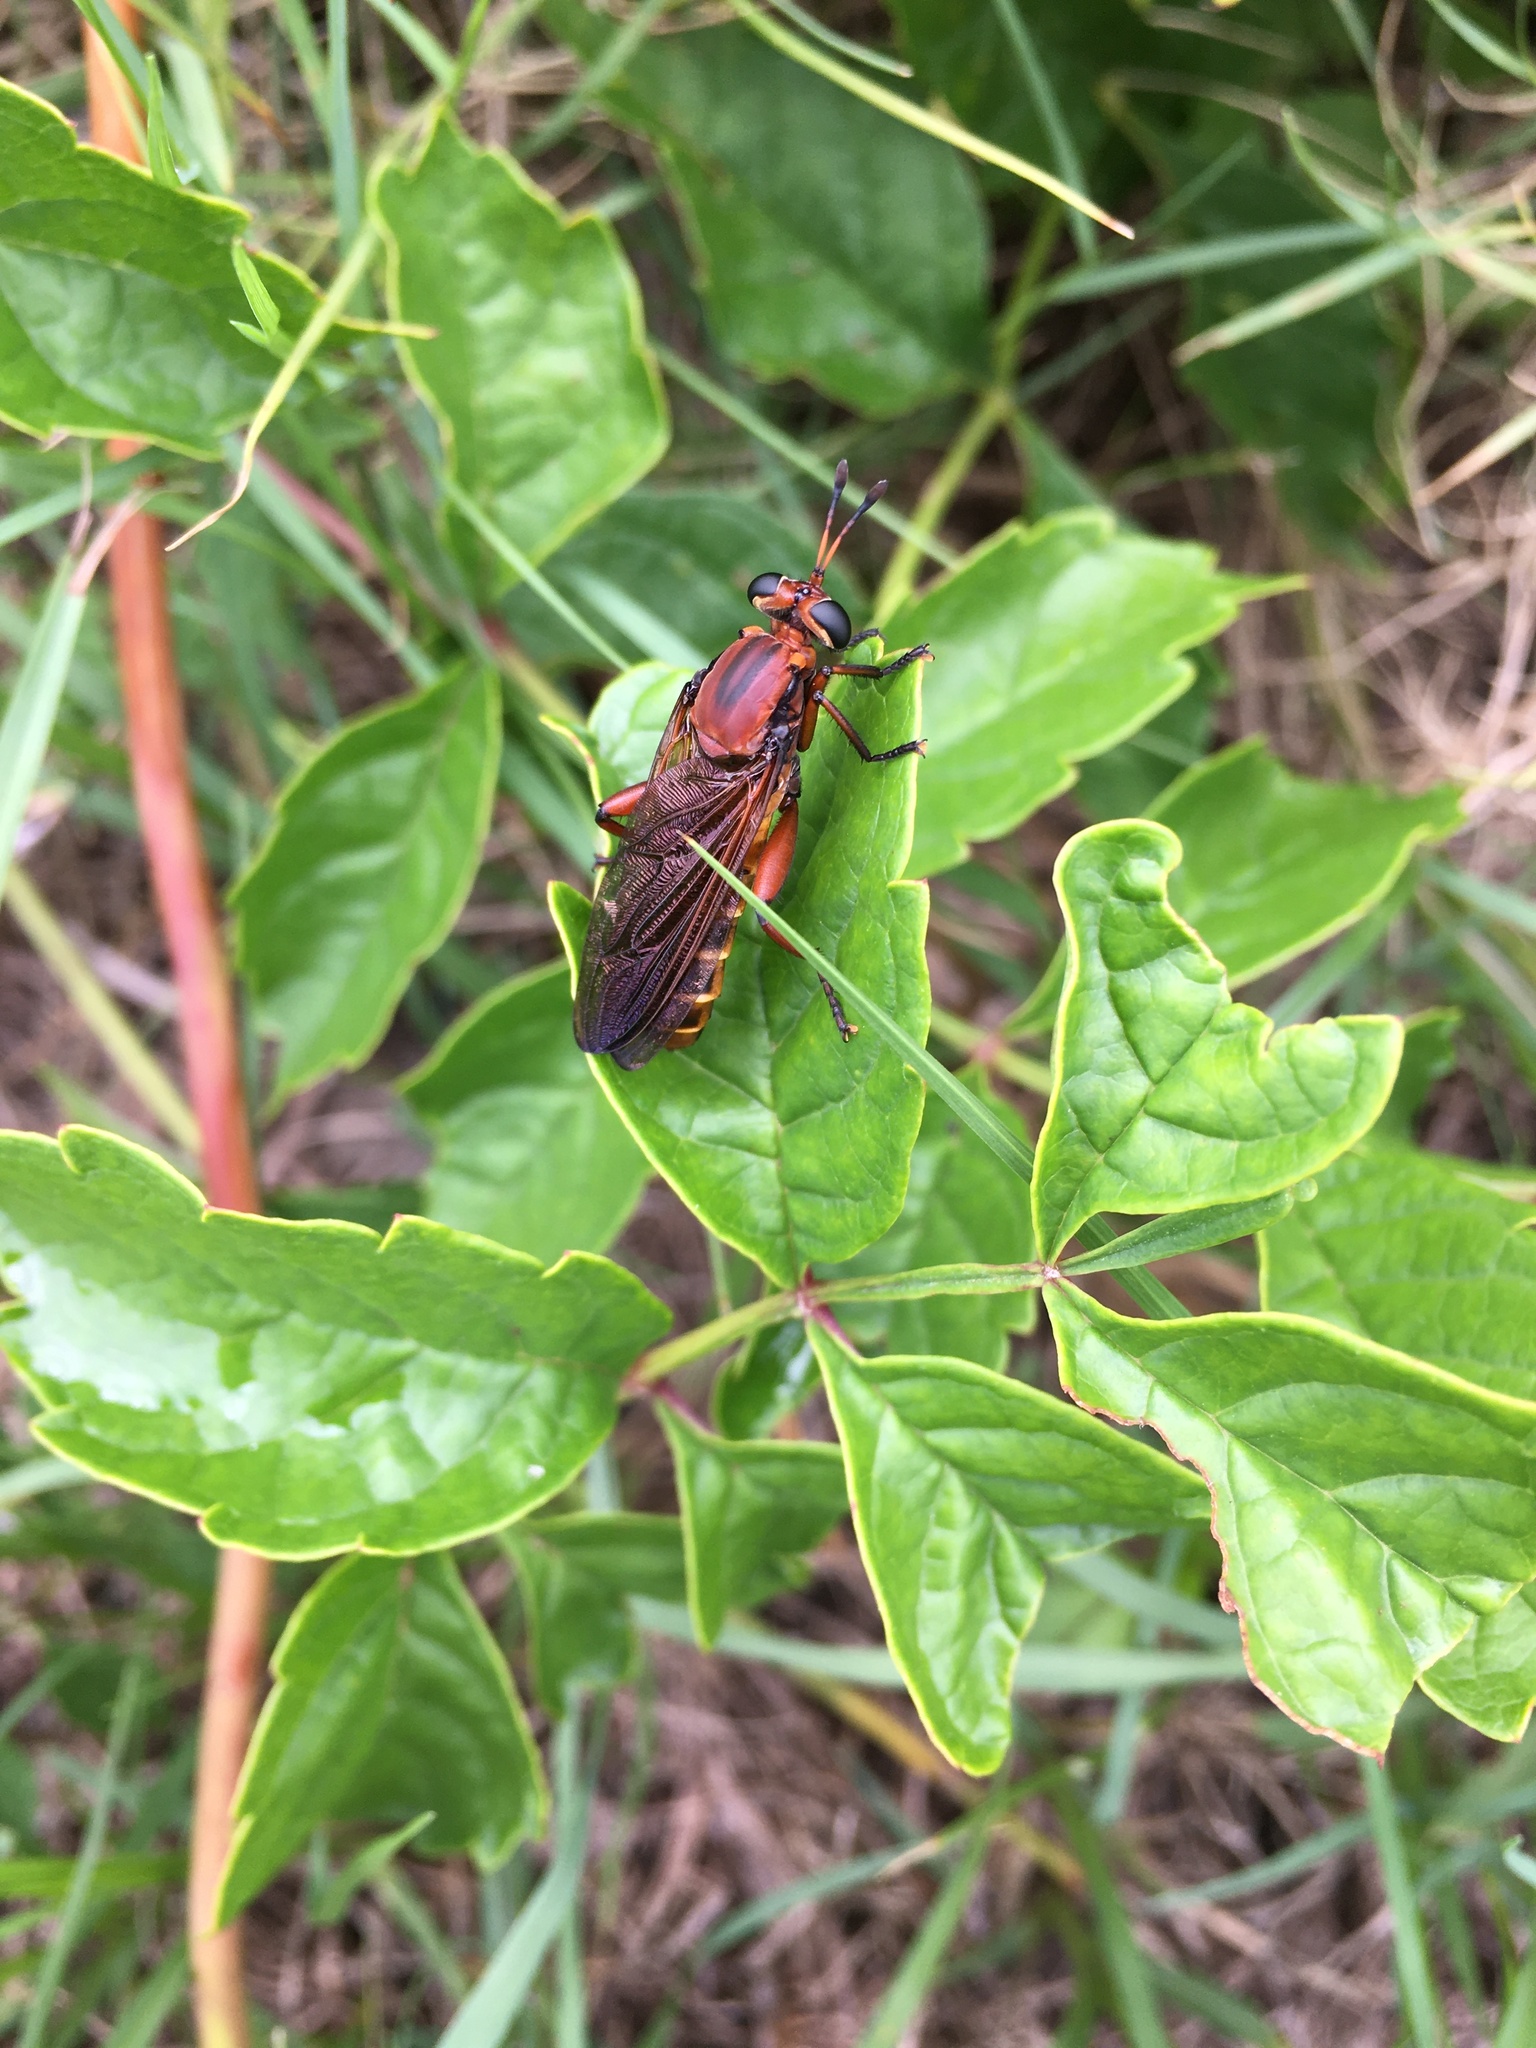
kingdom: Animalia
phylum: Arthropoda
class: Insecta
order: Diptera
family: Mydidae
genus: Mydas
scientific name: Mydas maculiventris
